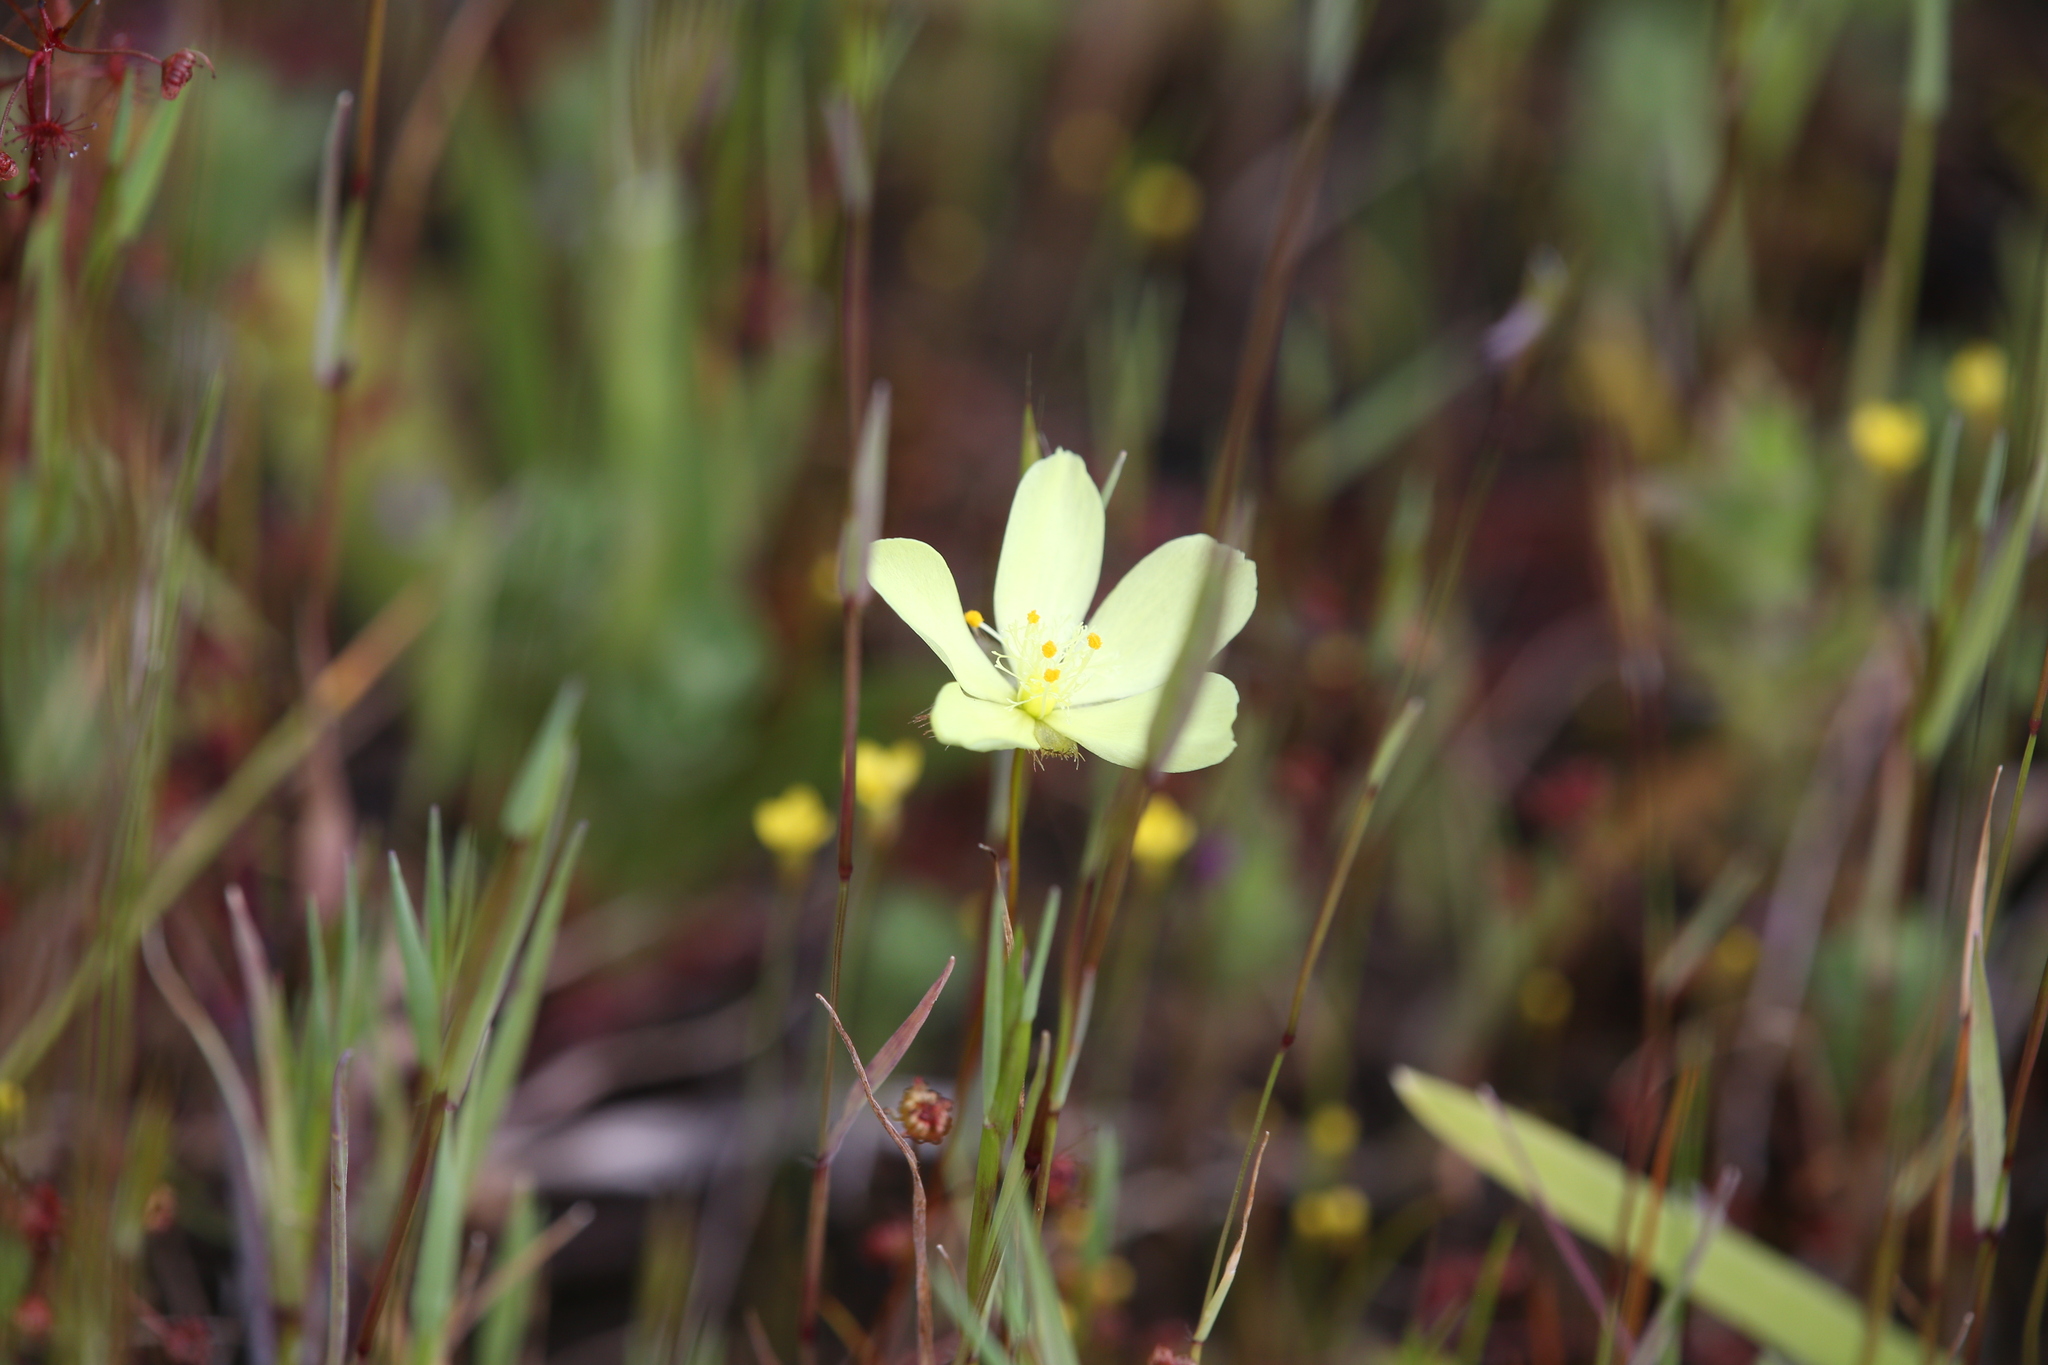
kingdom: Plantae
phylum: Tracheophyta
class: Magnoliopsida
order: Caryophyllales
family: Droseraceae
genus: Drosera
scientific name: Drosera intricata
